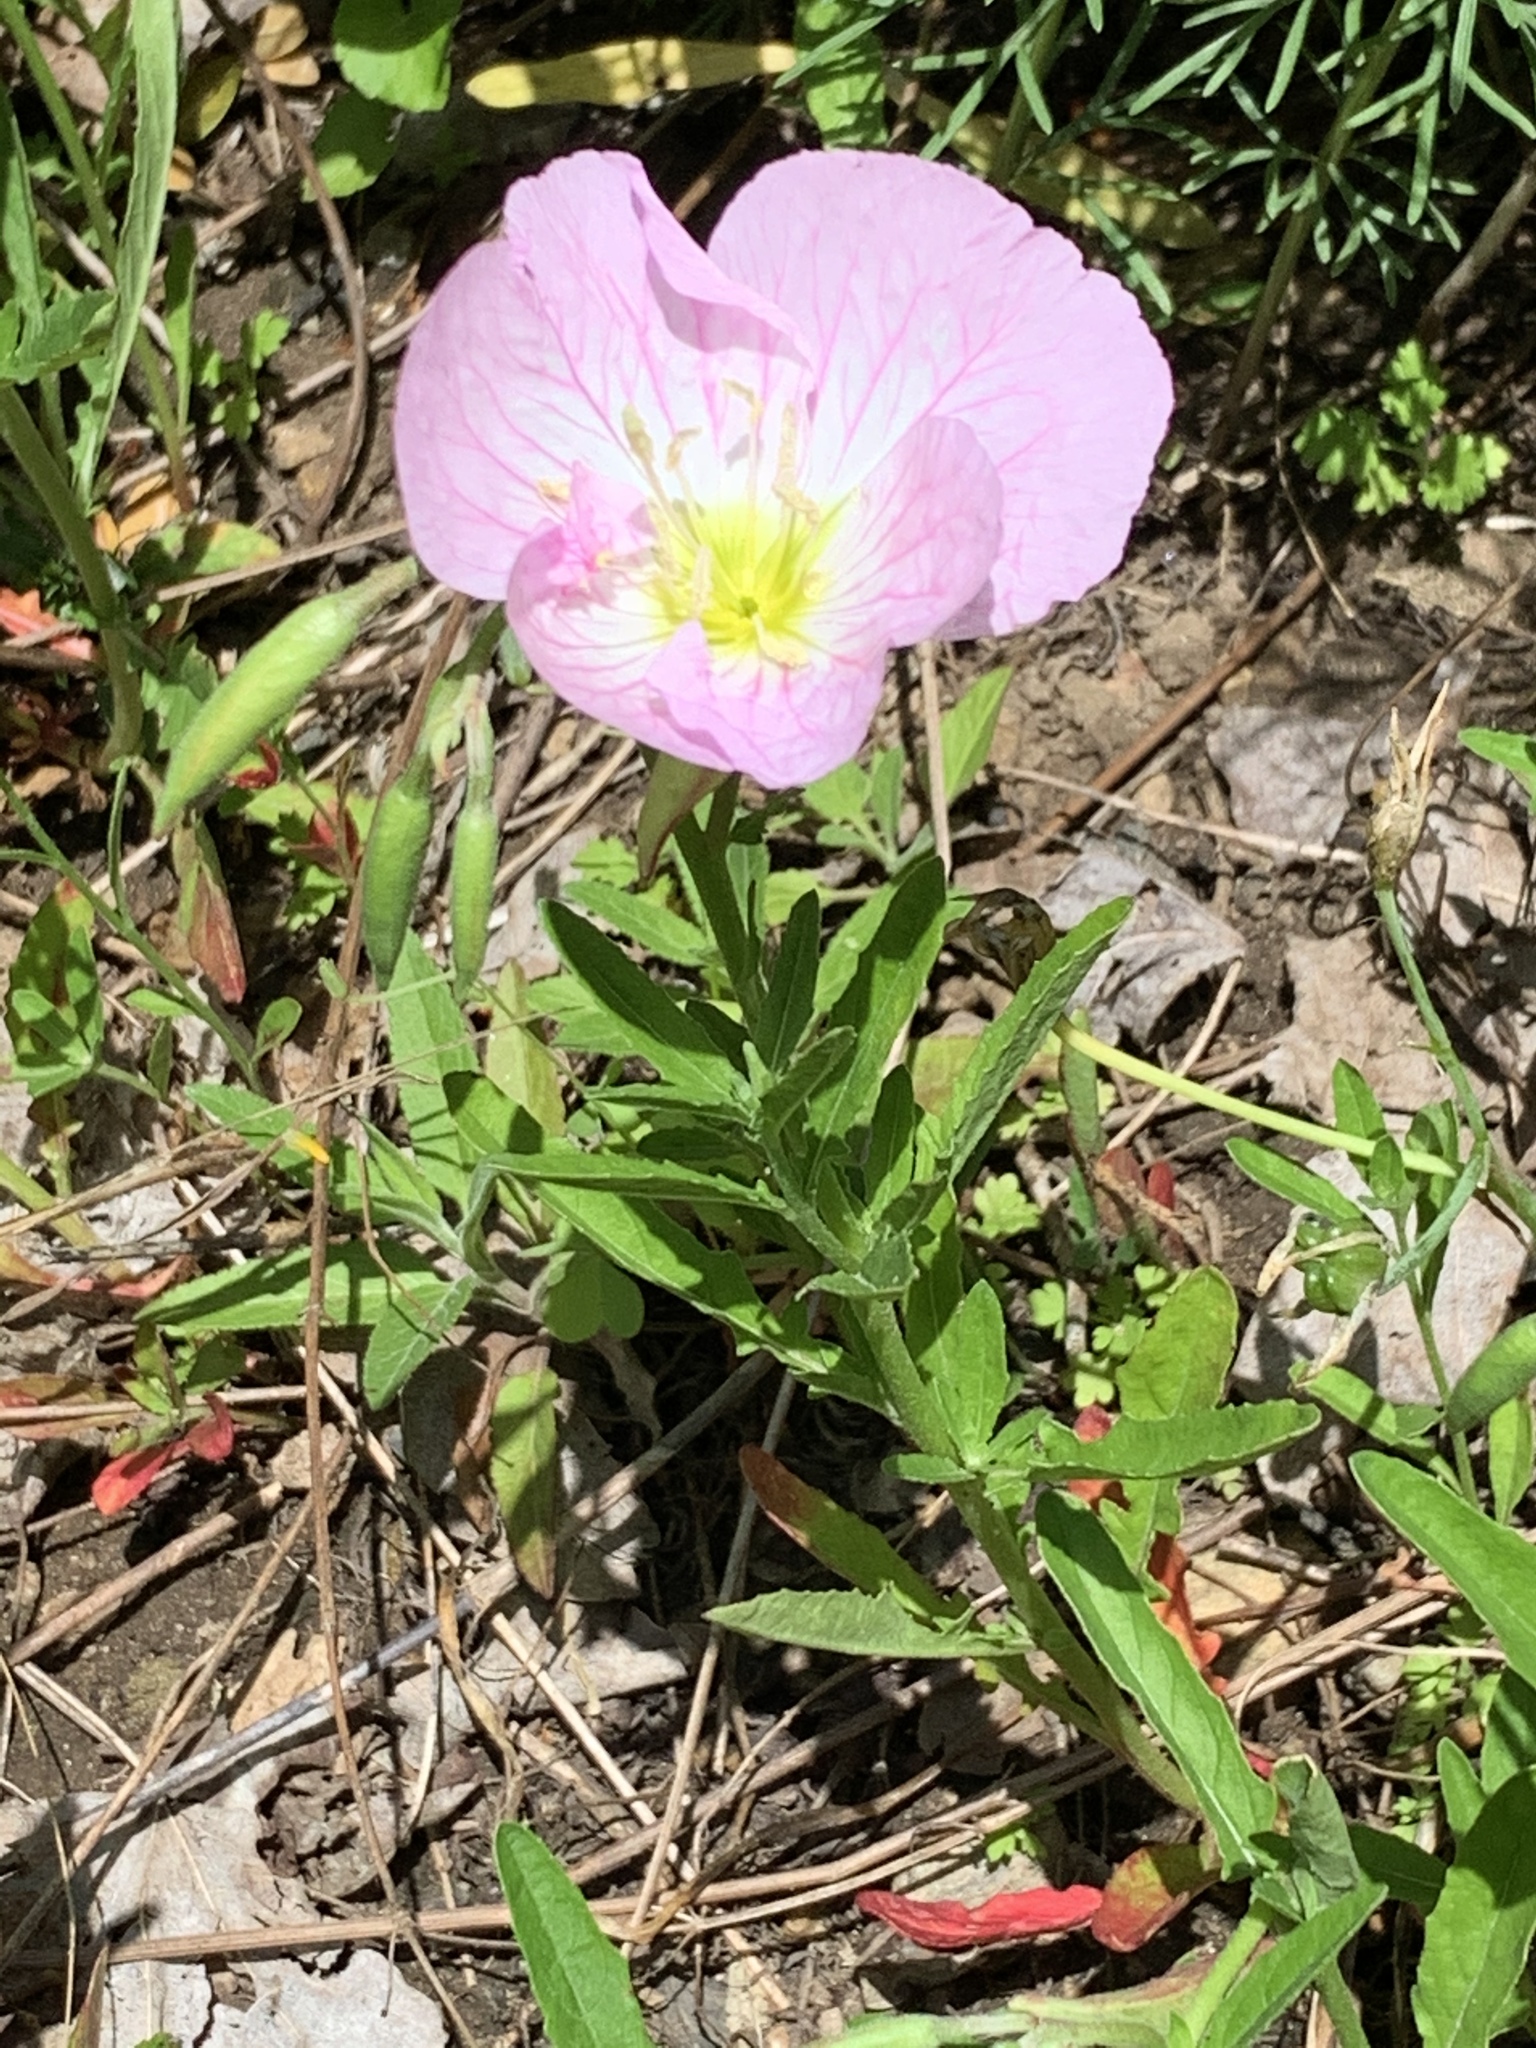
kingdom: Plantae
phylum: Tracheophyta
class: Magnoliopsida
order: Myrtales
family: Onagraceae
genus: Oenothera
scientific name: Oenothera speciosa
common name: White evening-primrose
